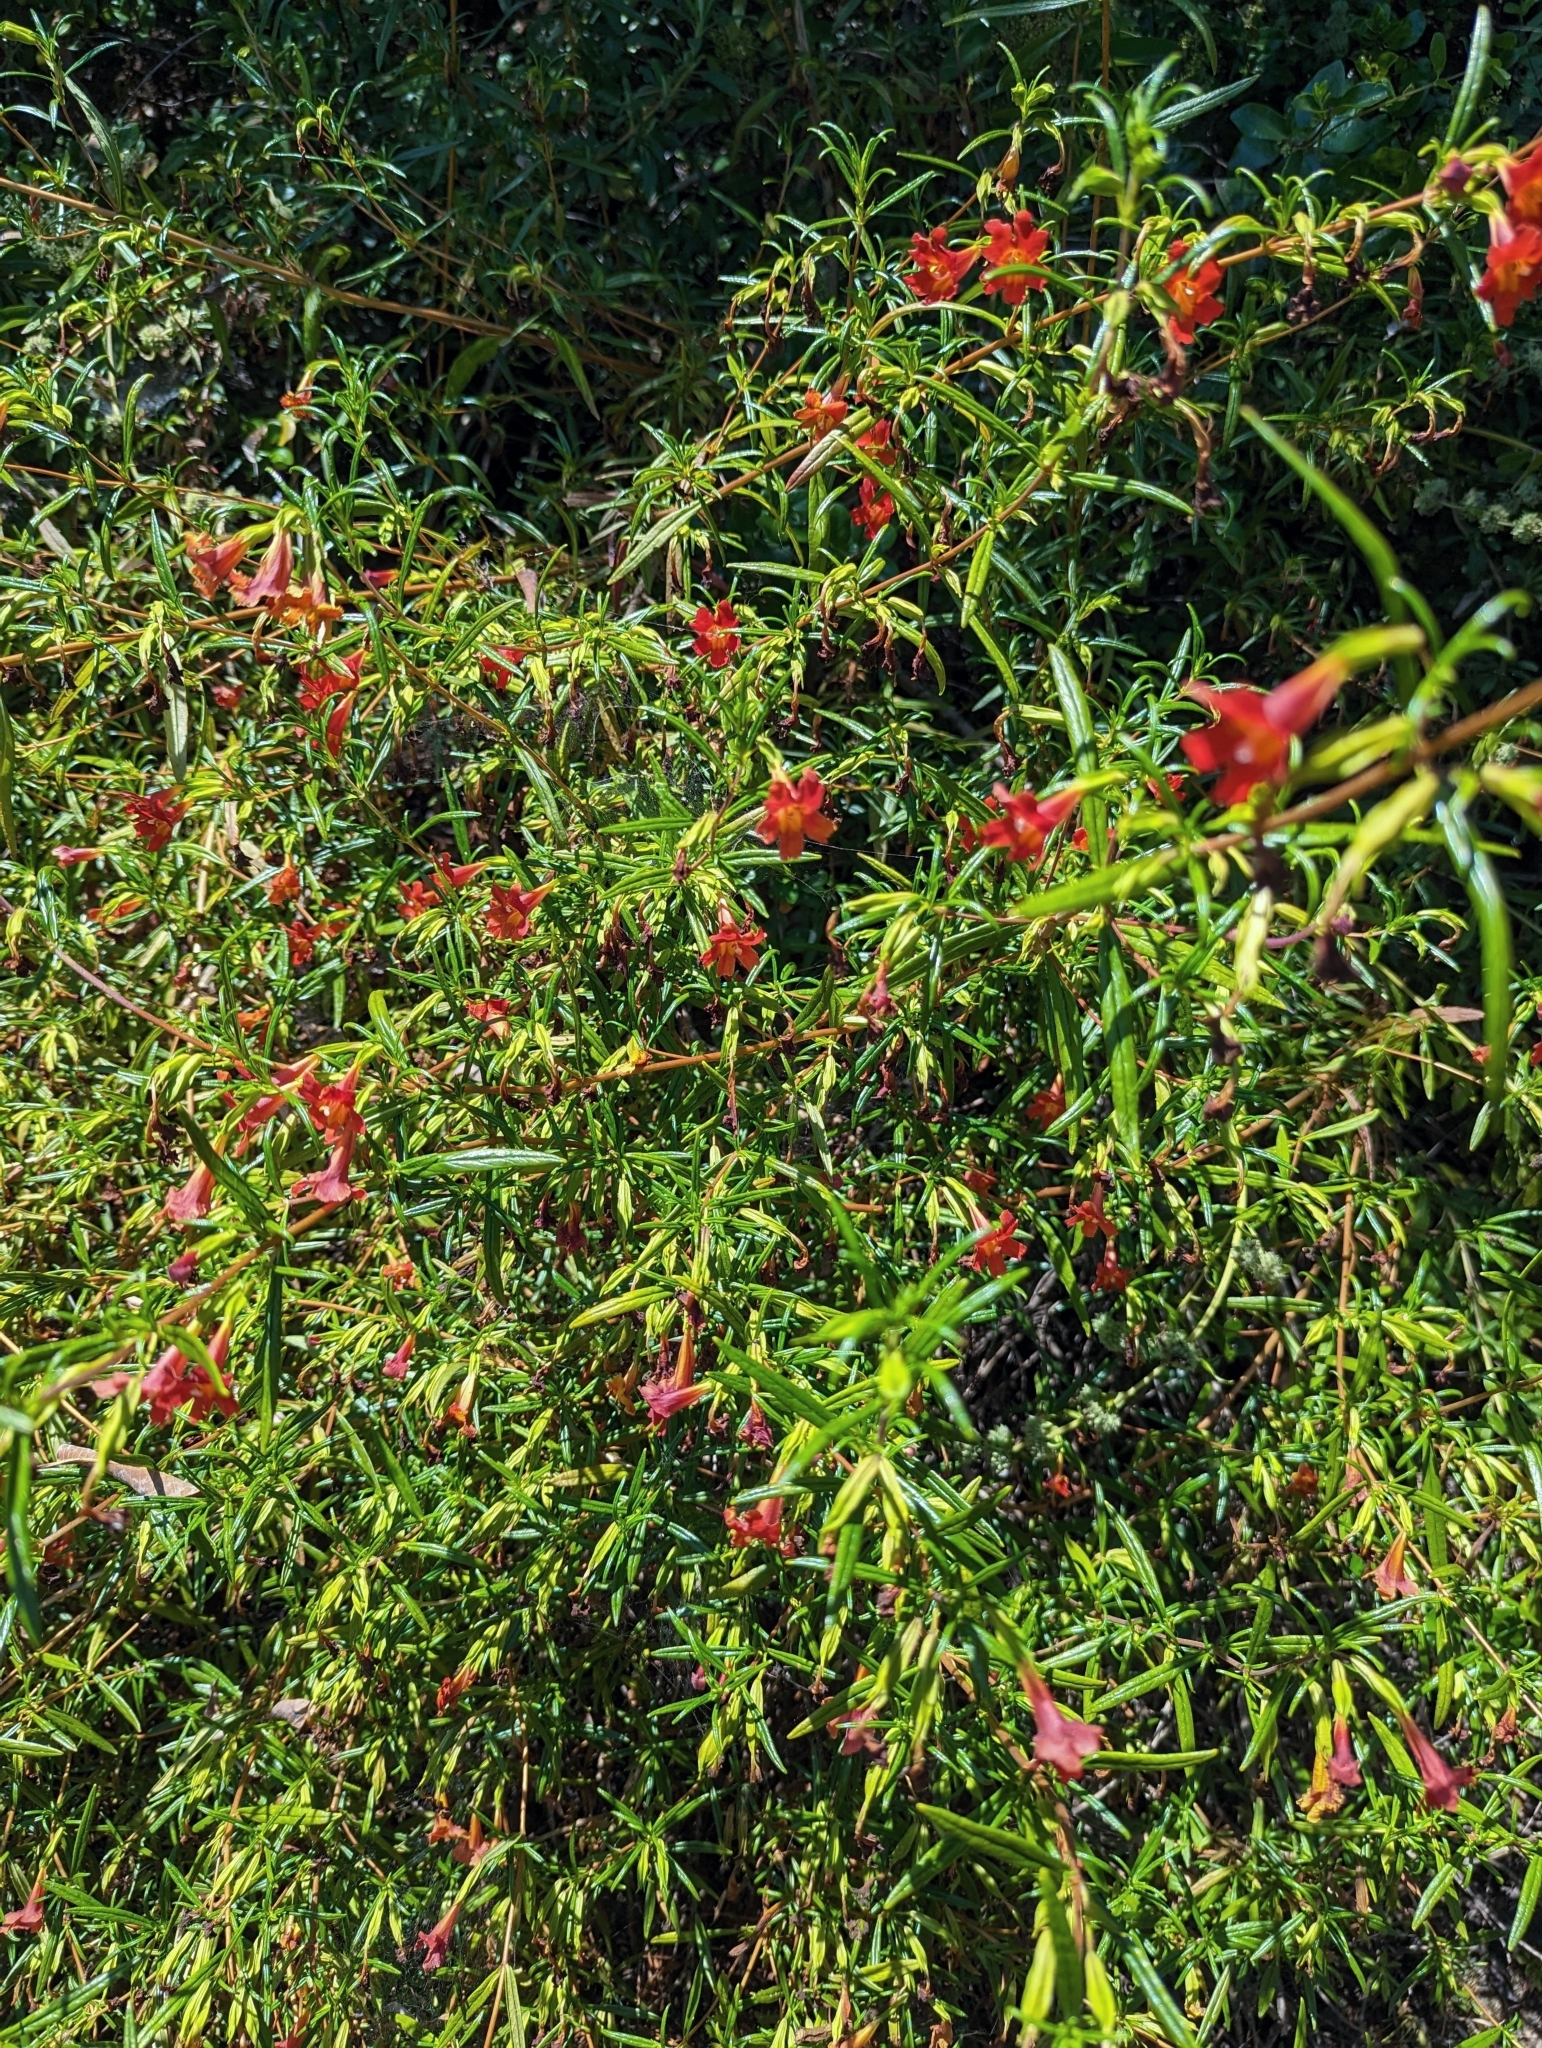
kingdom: Plantae
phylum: Tracheophyta
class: Magnoliopsida
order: Lamiales
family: Phrymaceae
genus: Diplacus
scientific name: Diplacus puniceus
